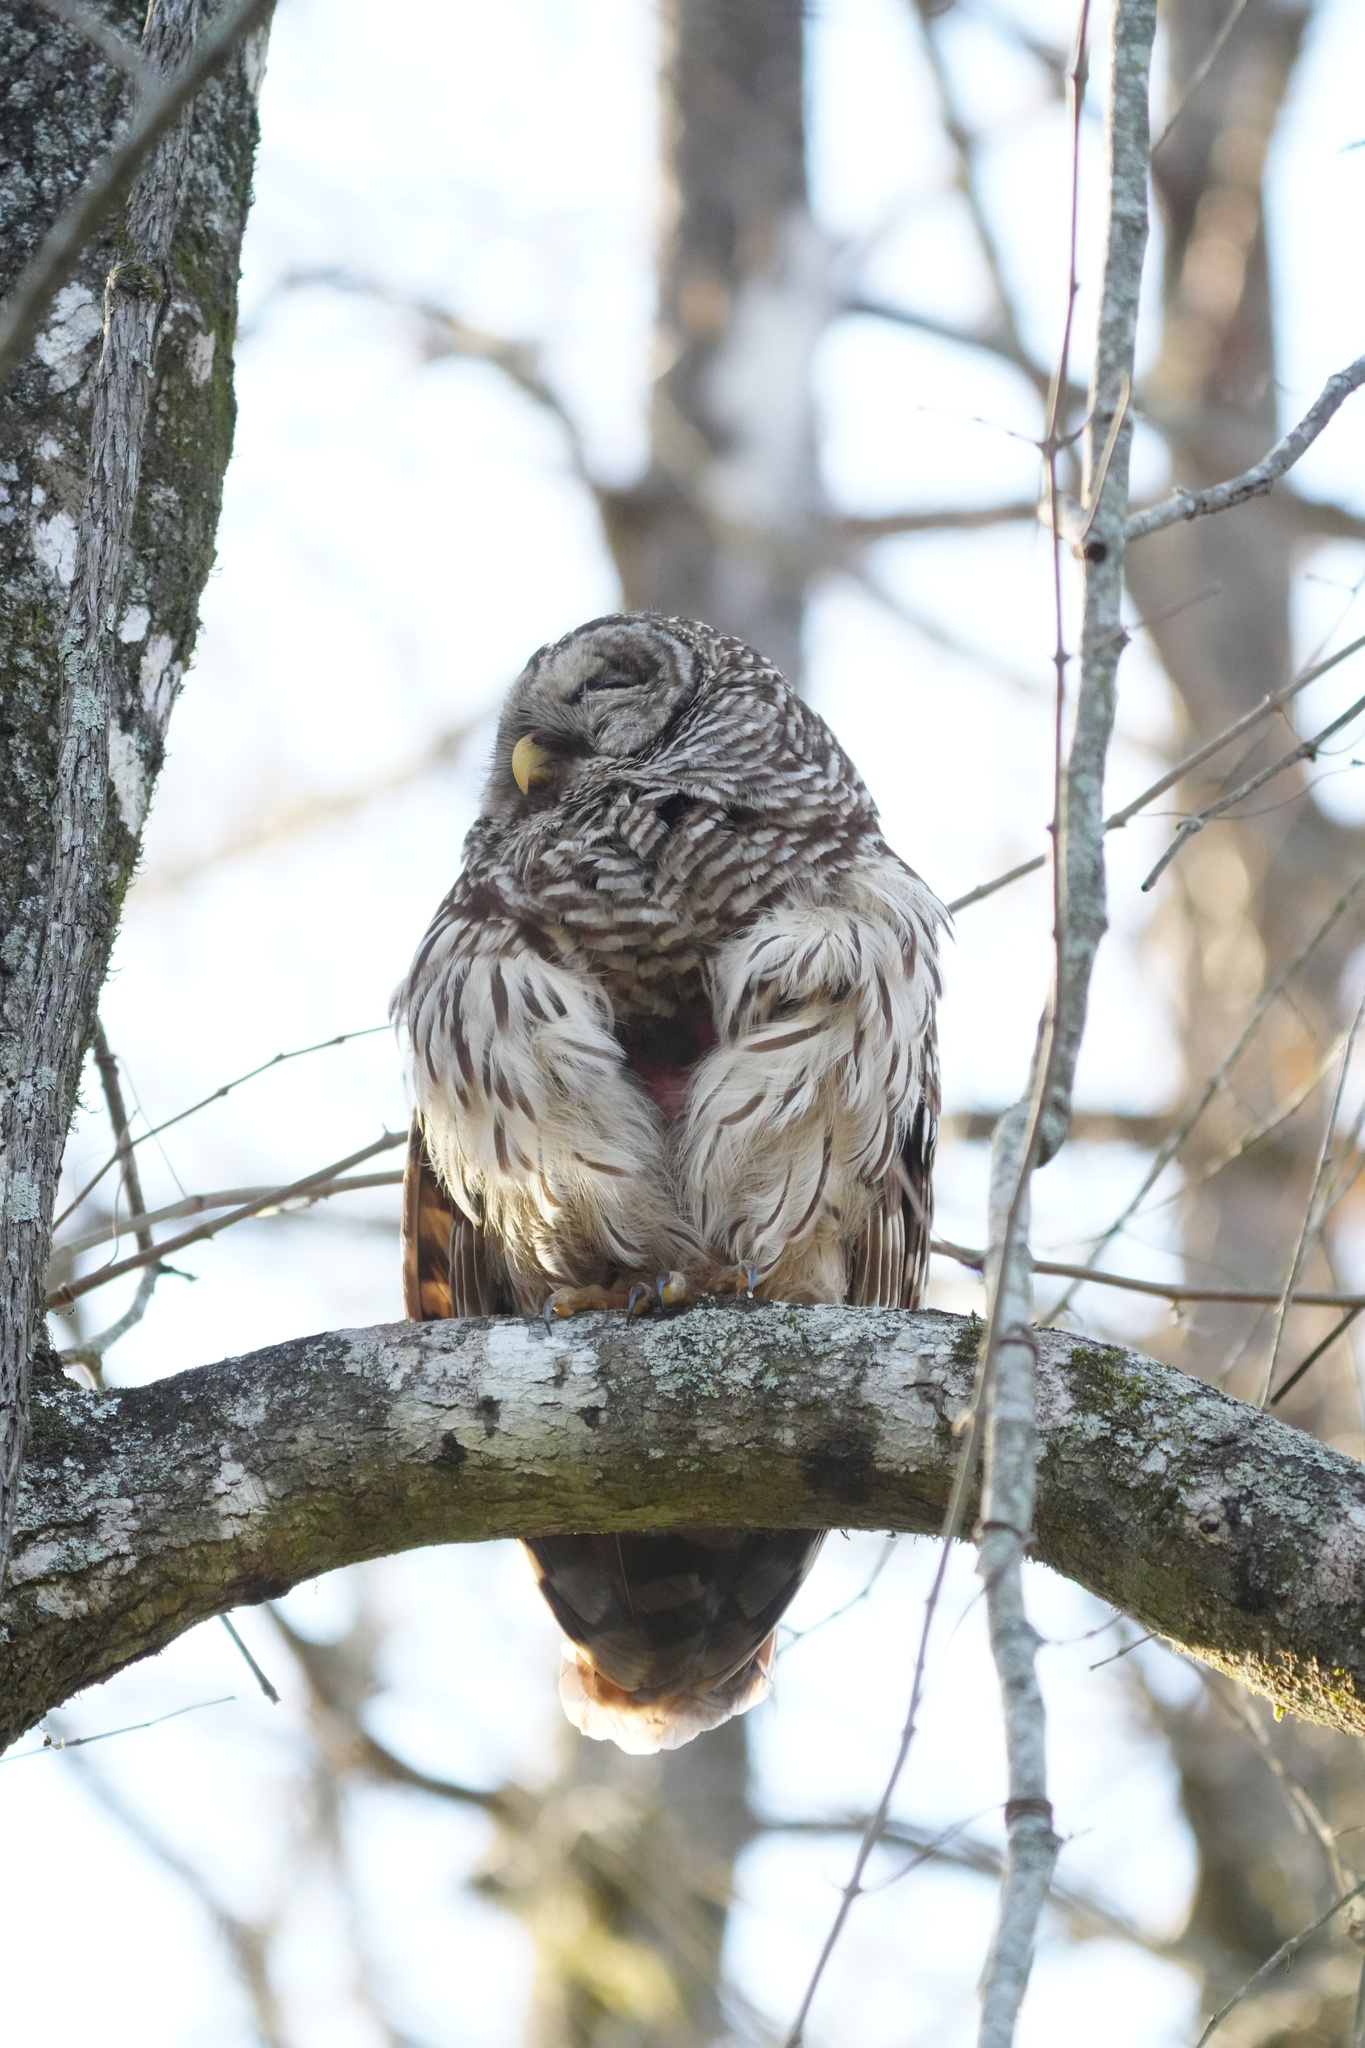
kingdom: Animalia
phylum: Chordata
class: Aves
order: Strigiformes
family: Strigidae
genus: Strix
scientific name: Strix varia
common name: Barred owl
